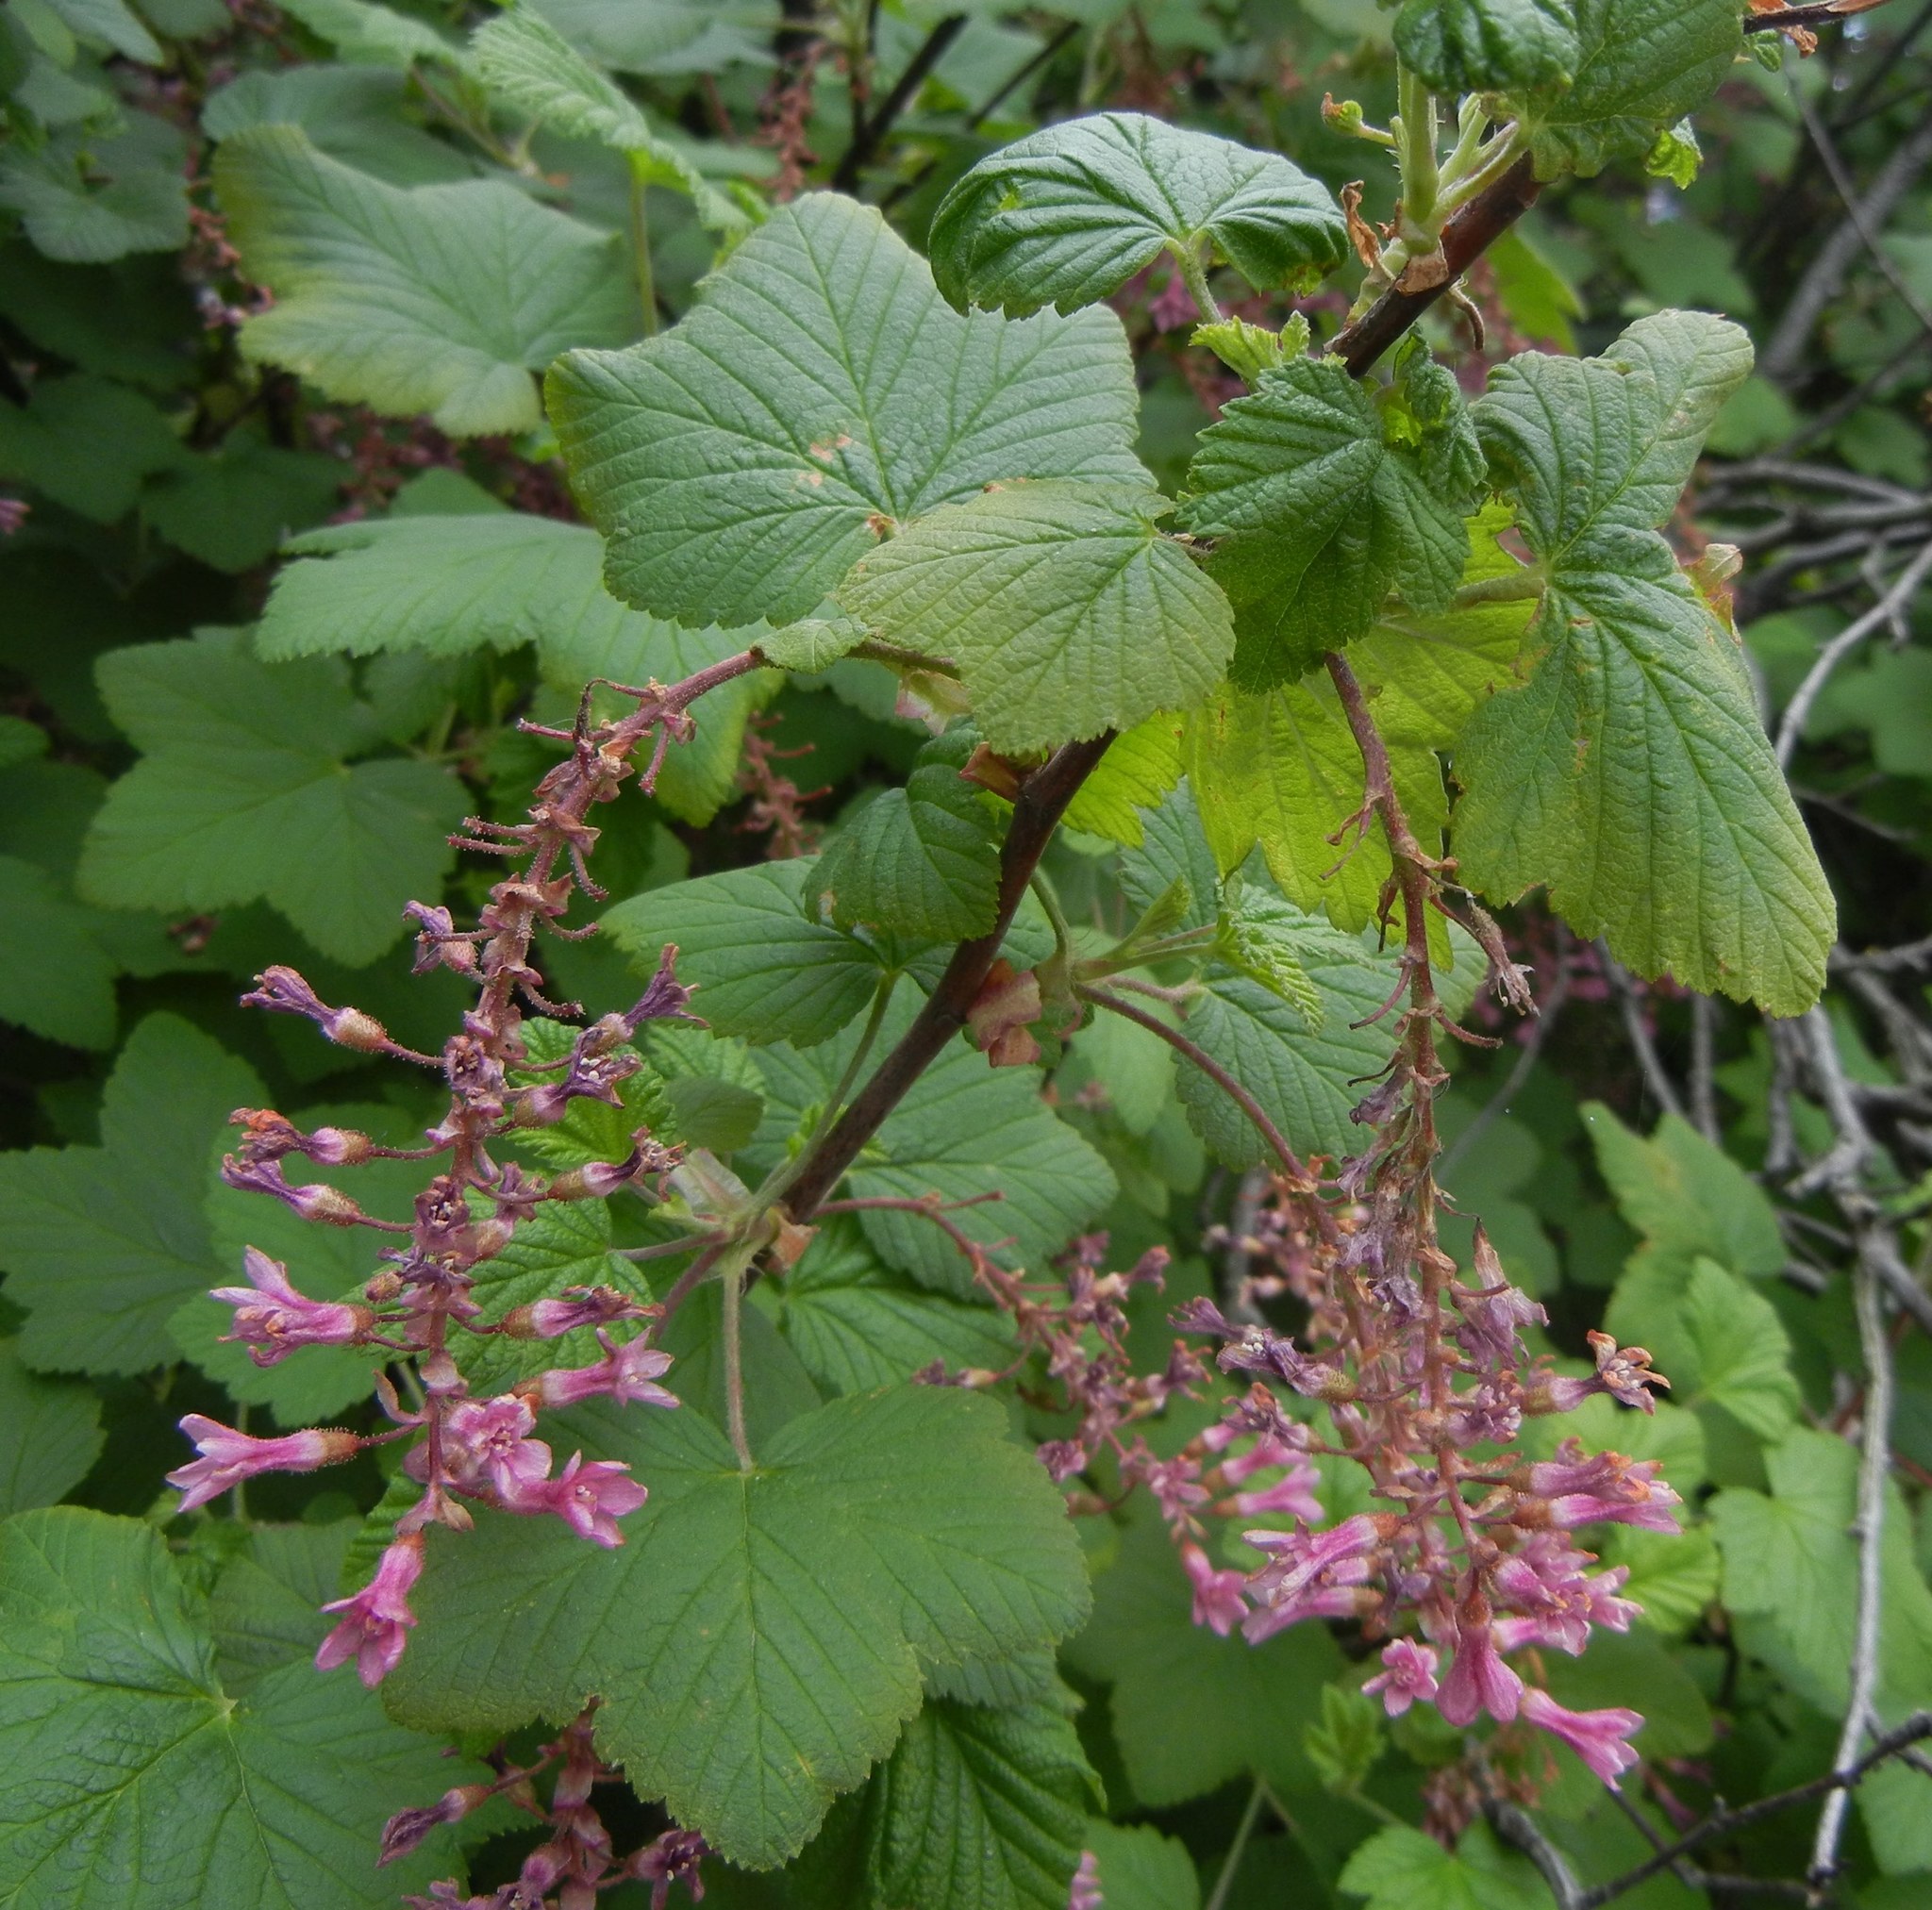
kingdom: Plantae
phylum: Tracheophyta
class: Magnoliopsida
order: Saxifragales
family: Grossulariaceae
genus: Ribes
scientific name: Ribes sanguineum
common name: Flowering currant
